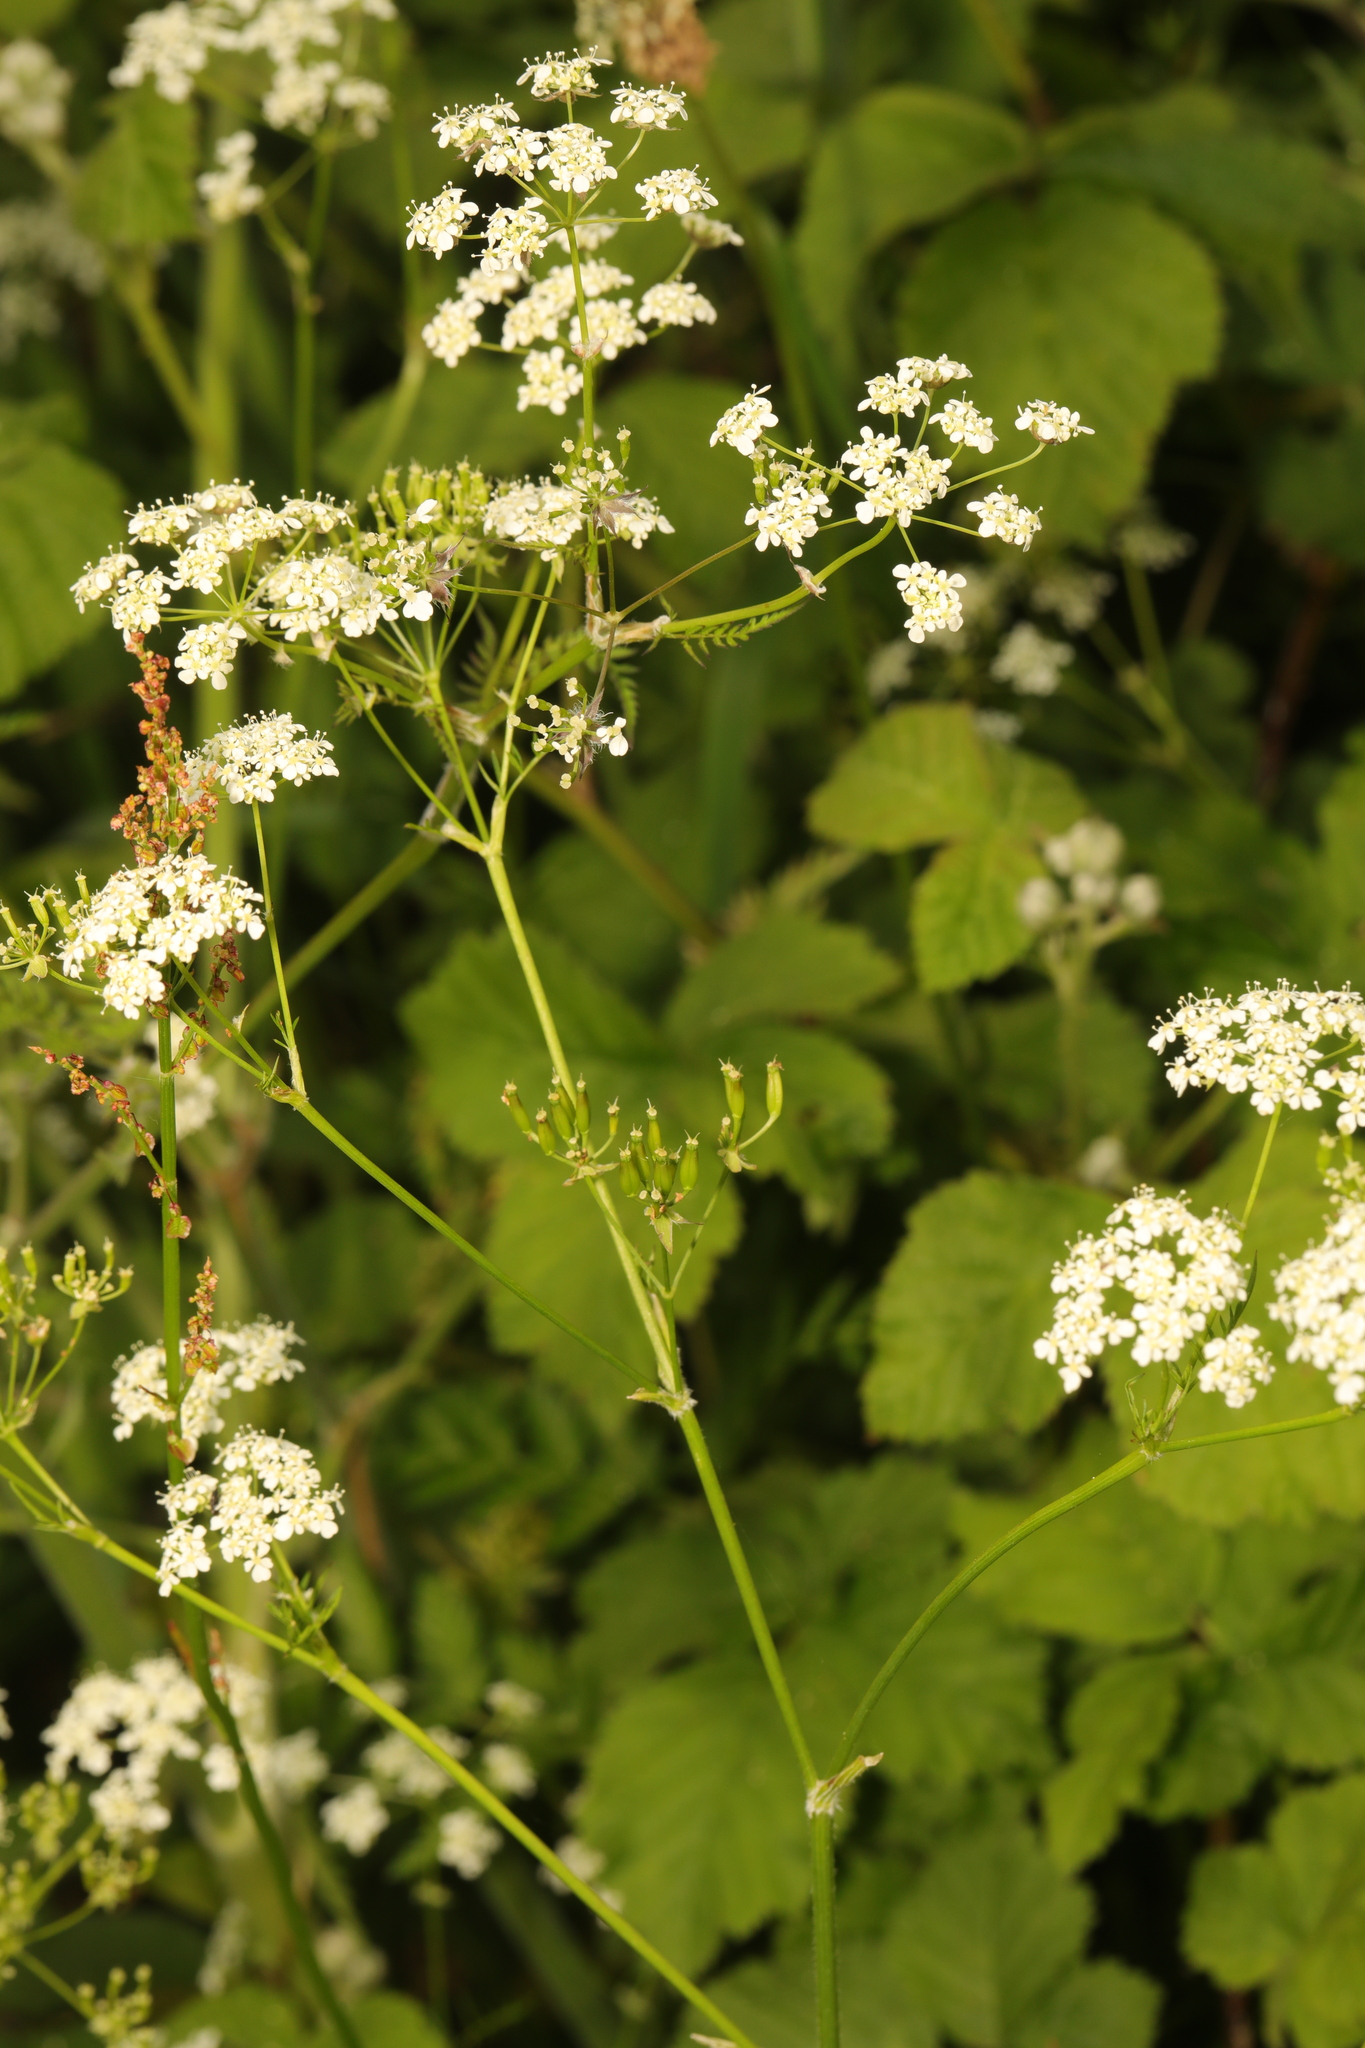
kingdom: Plantae
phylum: Tracheophyta
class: Magnoliopsida
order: Apiales
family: Apiaceae
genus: Anthriscus
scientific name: Anthriscus sylvestris
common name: Cow parsley
